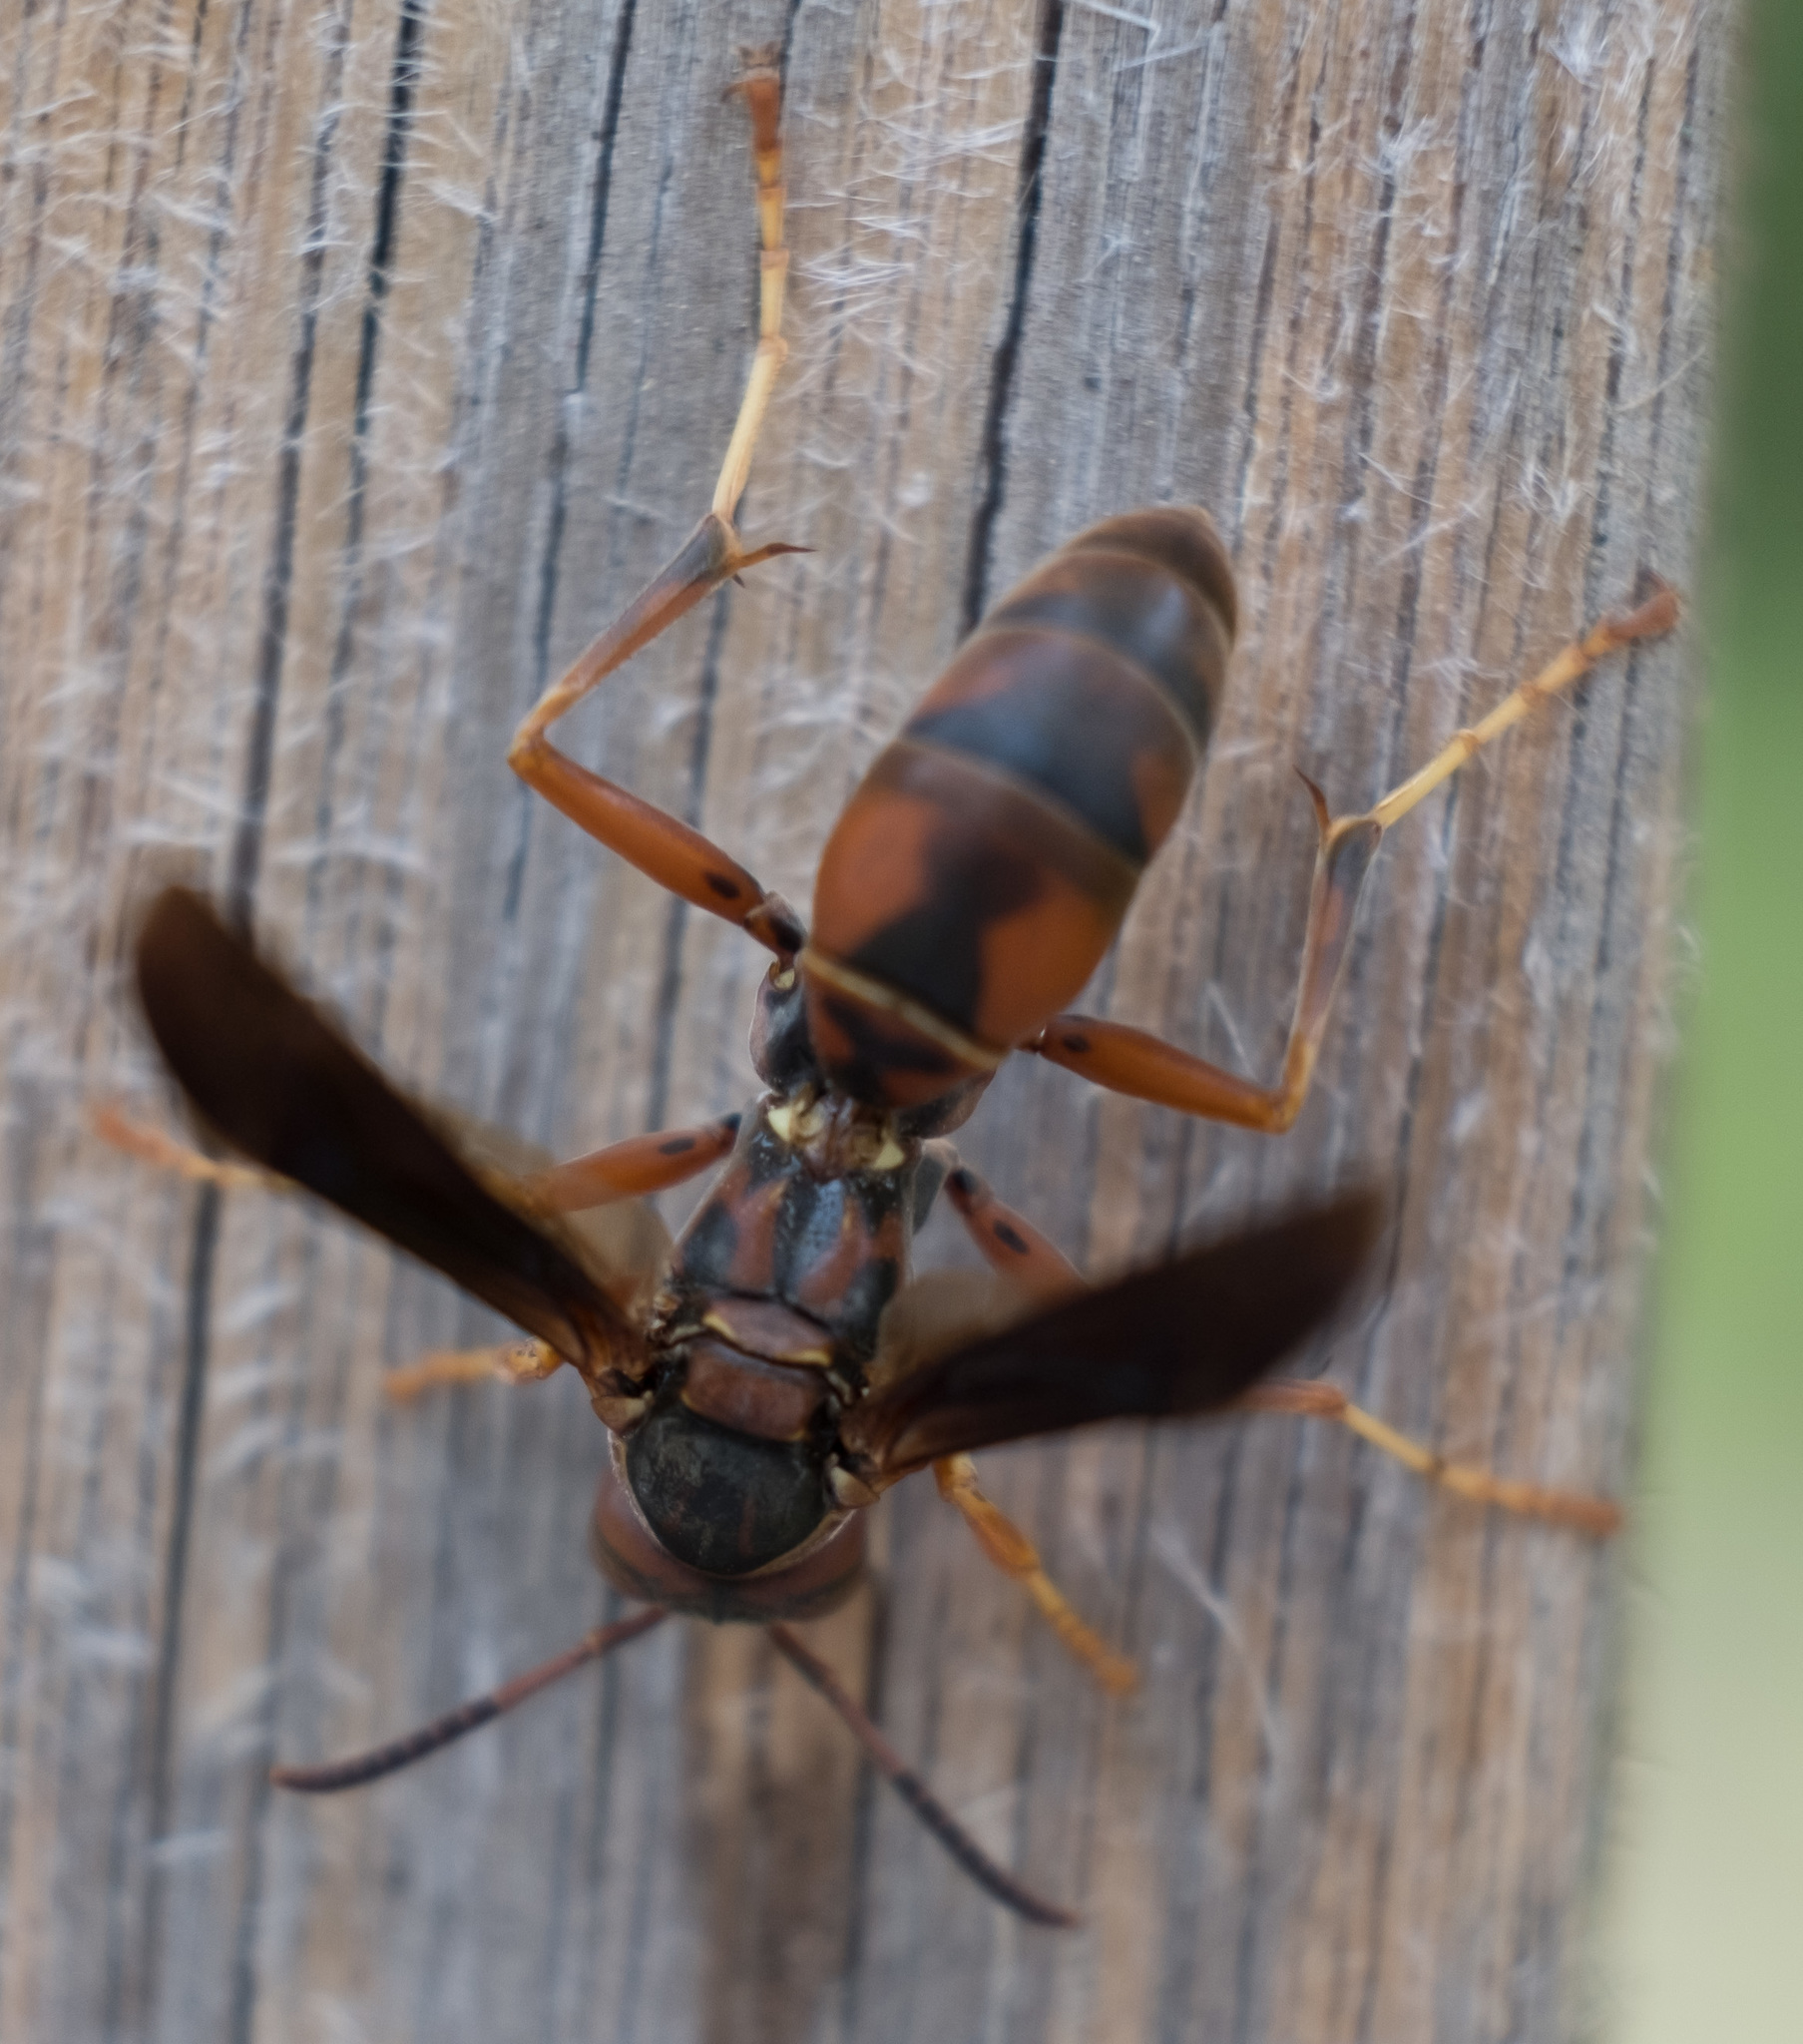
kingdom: Animalia
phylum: Arthropoda
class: Insecta
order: Hymenoptera
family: Eumenidae
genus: Polistes
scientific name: Polistes fuscatus
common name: Dark paper wasp
